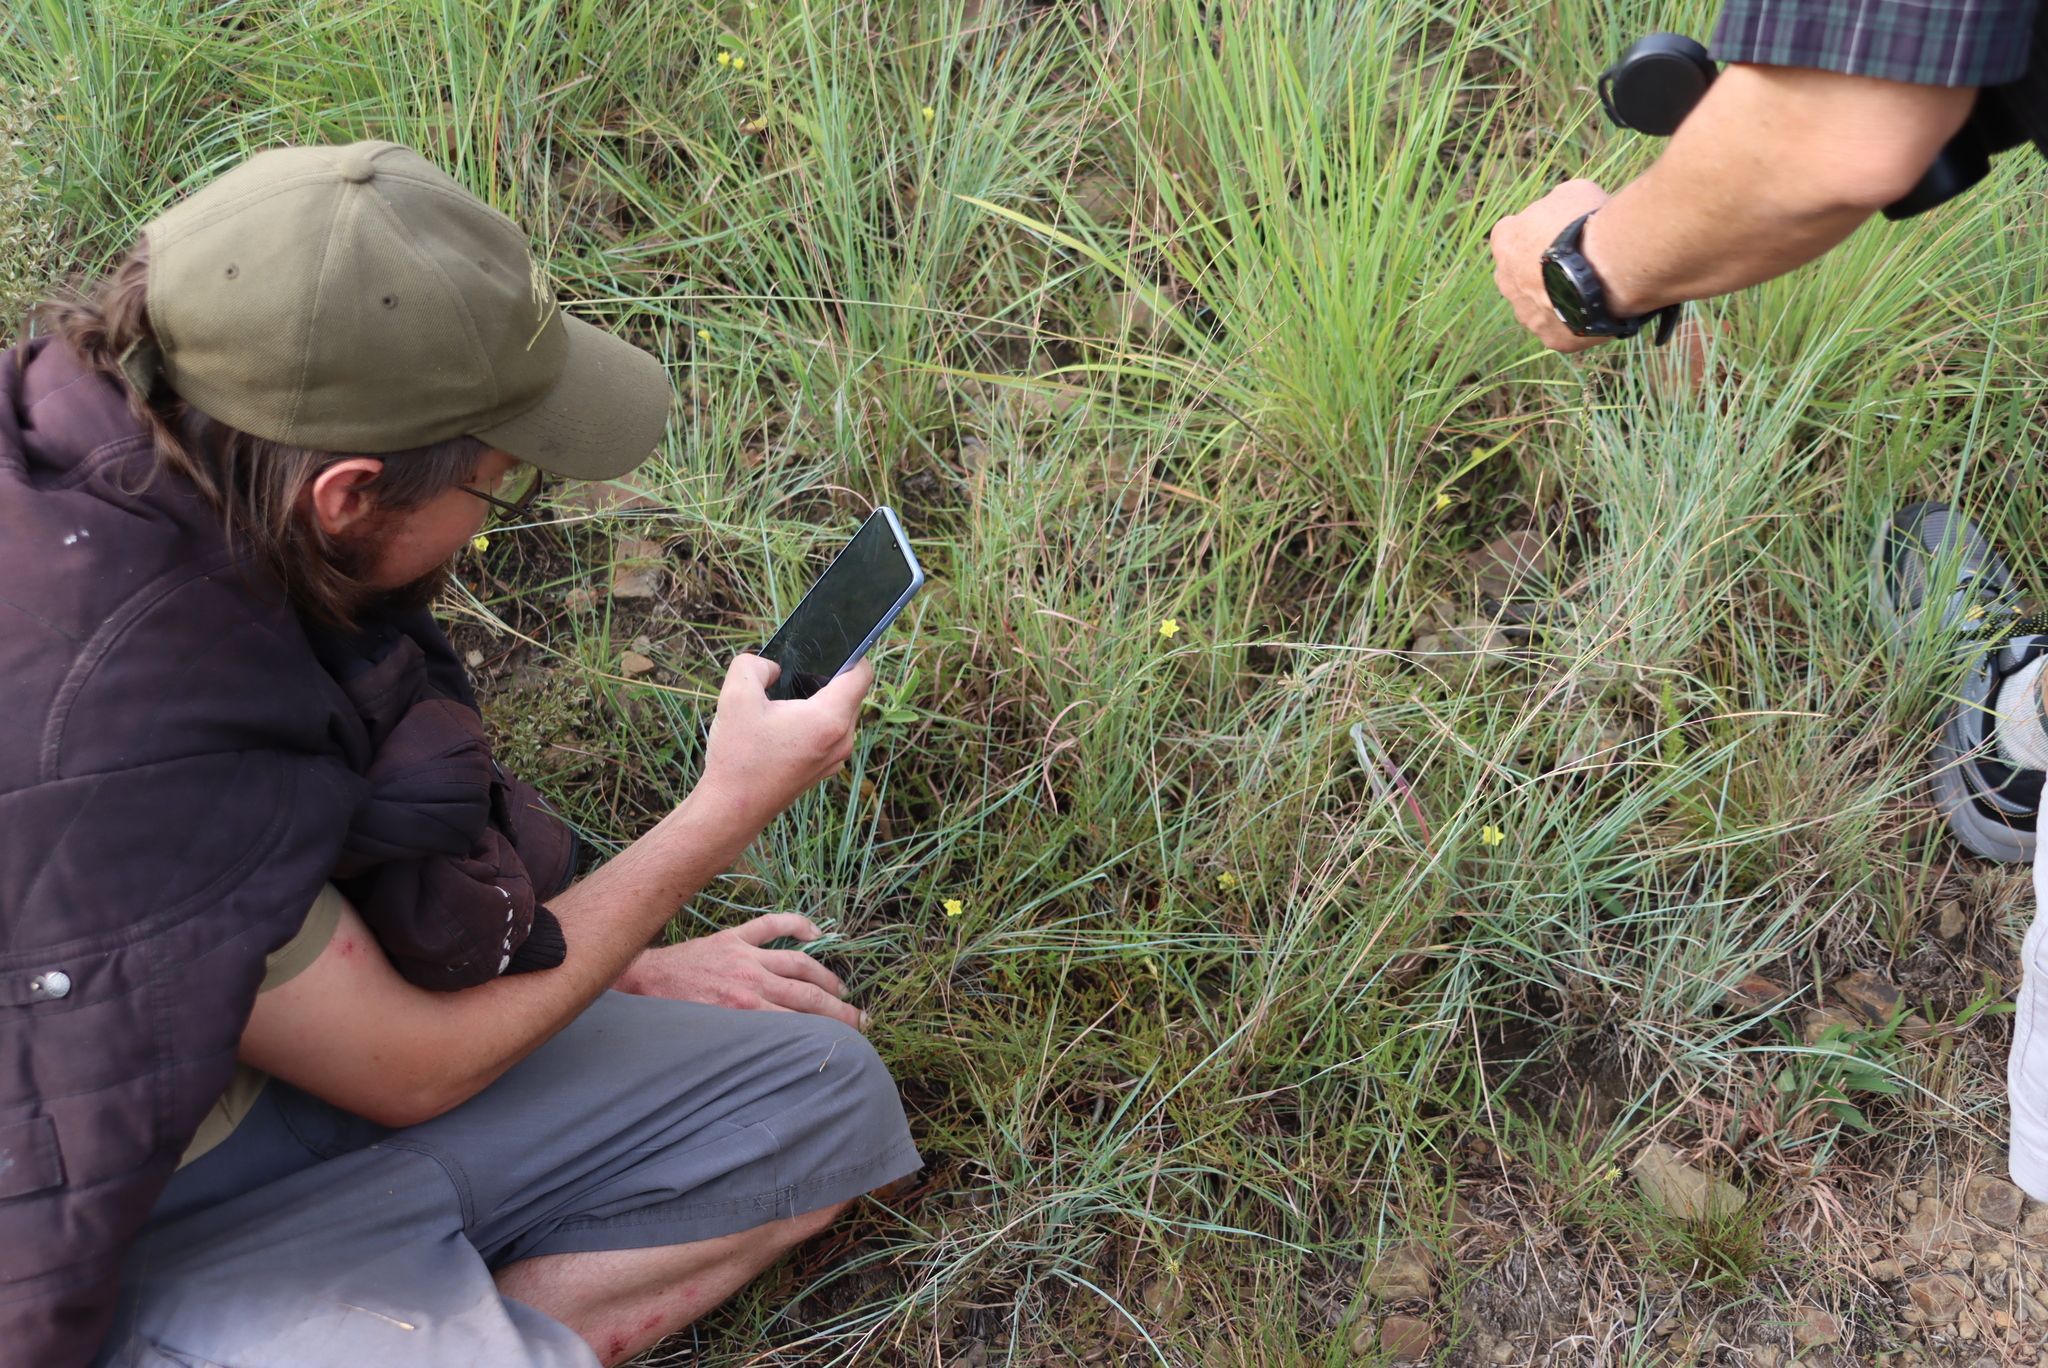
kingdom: Plantae
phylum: Tracheophyta
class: Magnoliopsida
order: Solanales
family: Convolvulaceae
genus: Xenostegia
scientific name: Xenostegia tridentata
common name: African morningvine
